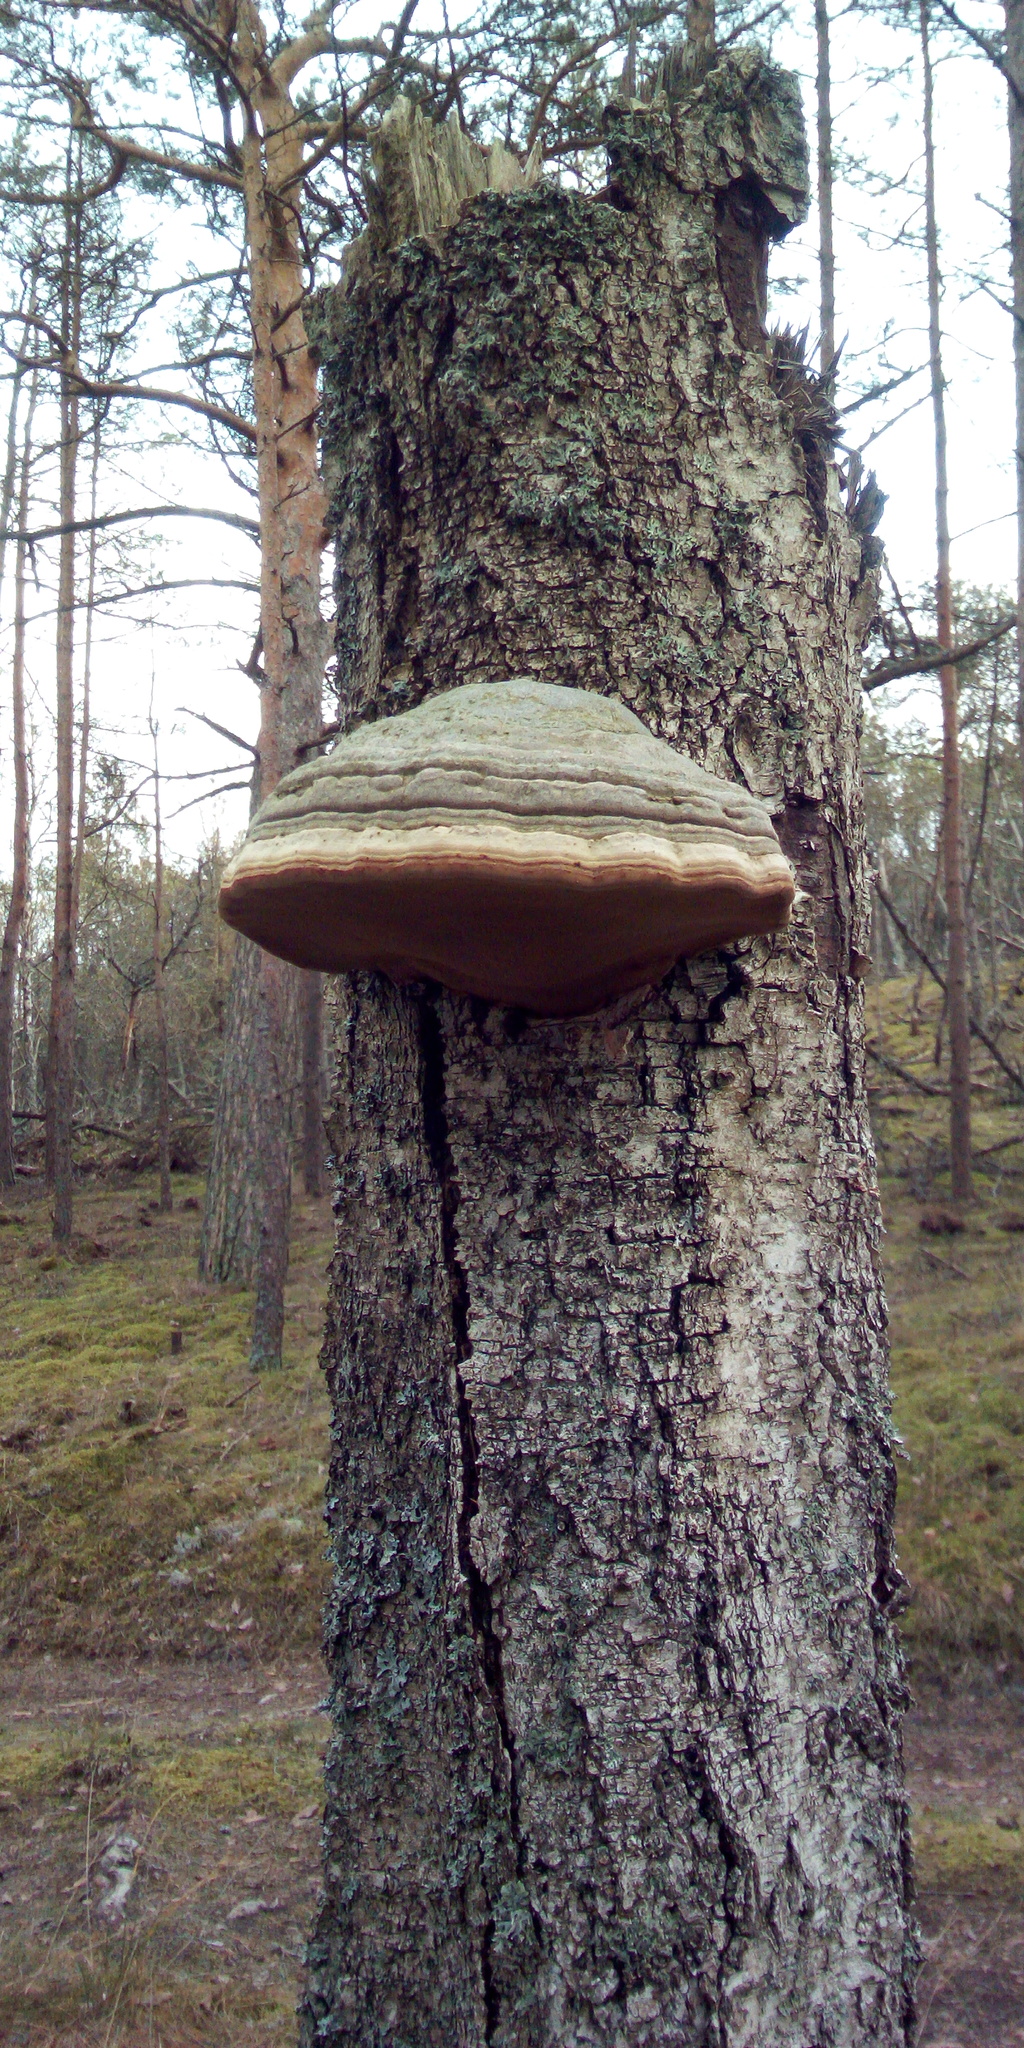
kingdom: Fungi
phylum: Basidiomycota
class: Agaricomycetes
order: Polyporales
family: Polyporaceae
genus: Fomes
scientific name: Fomes fomentarius
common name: Hoof fungus
